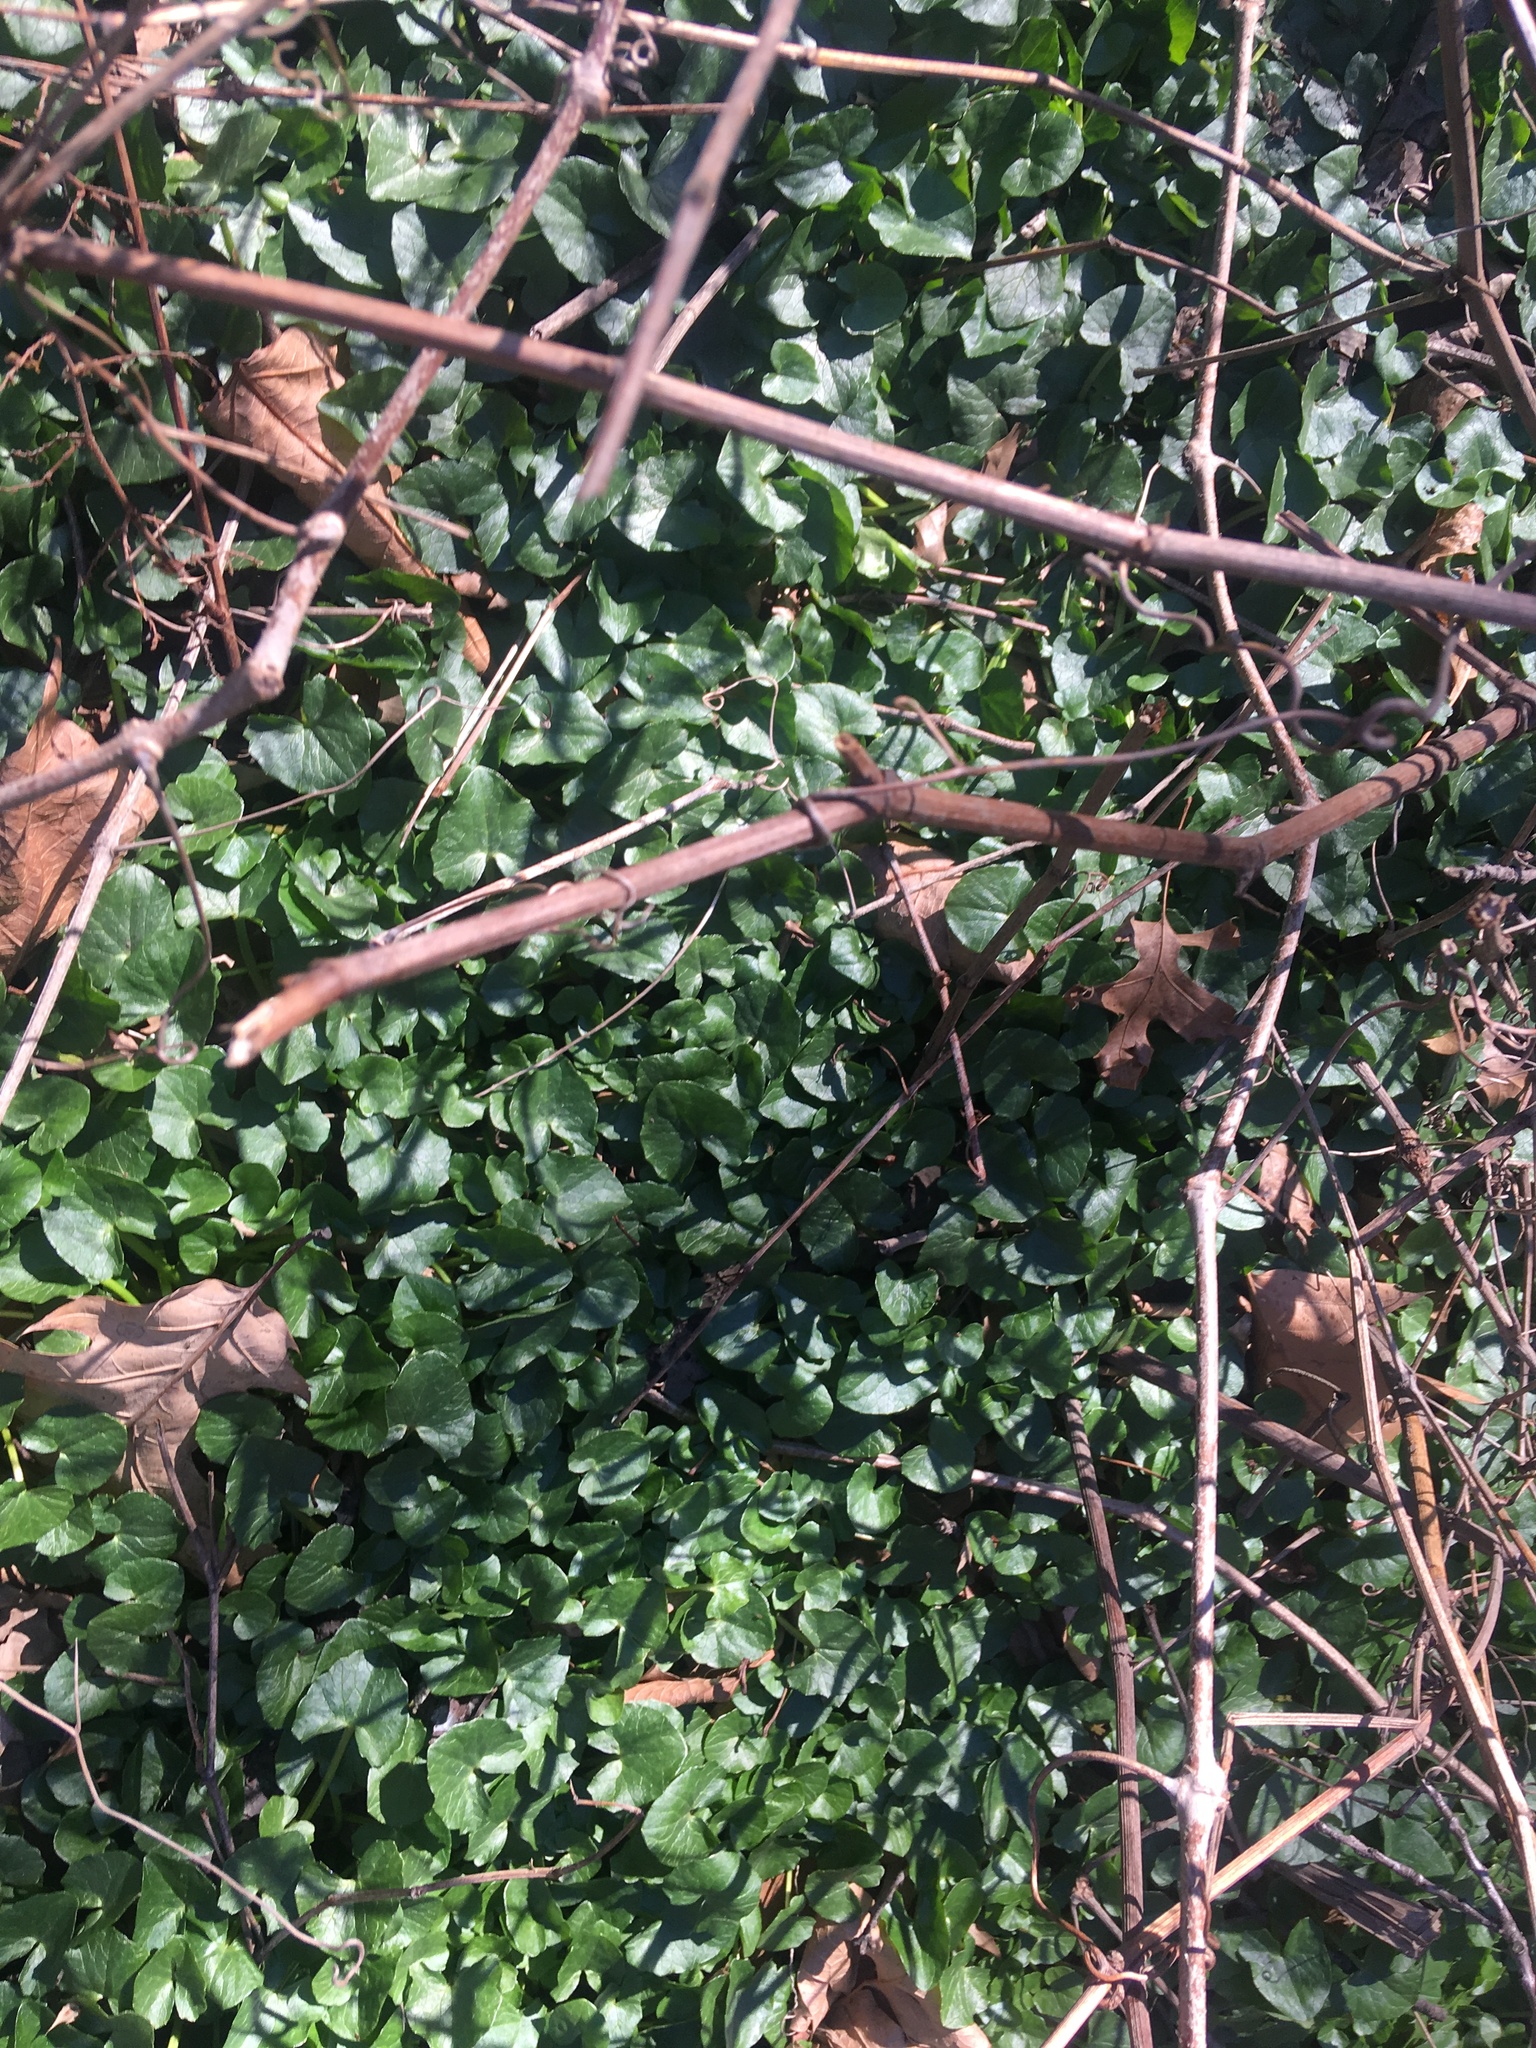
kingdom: Plantae
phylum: Tracheophyta
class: Magnoliopsida
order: Ranunculales
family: Ranunculaceae
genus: Ficaria
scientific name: Ficaria verna
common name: Lesser celandine
